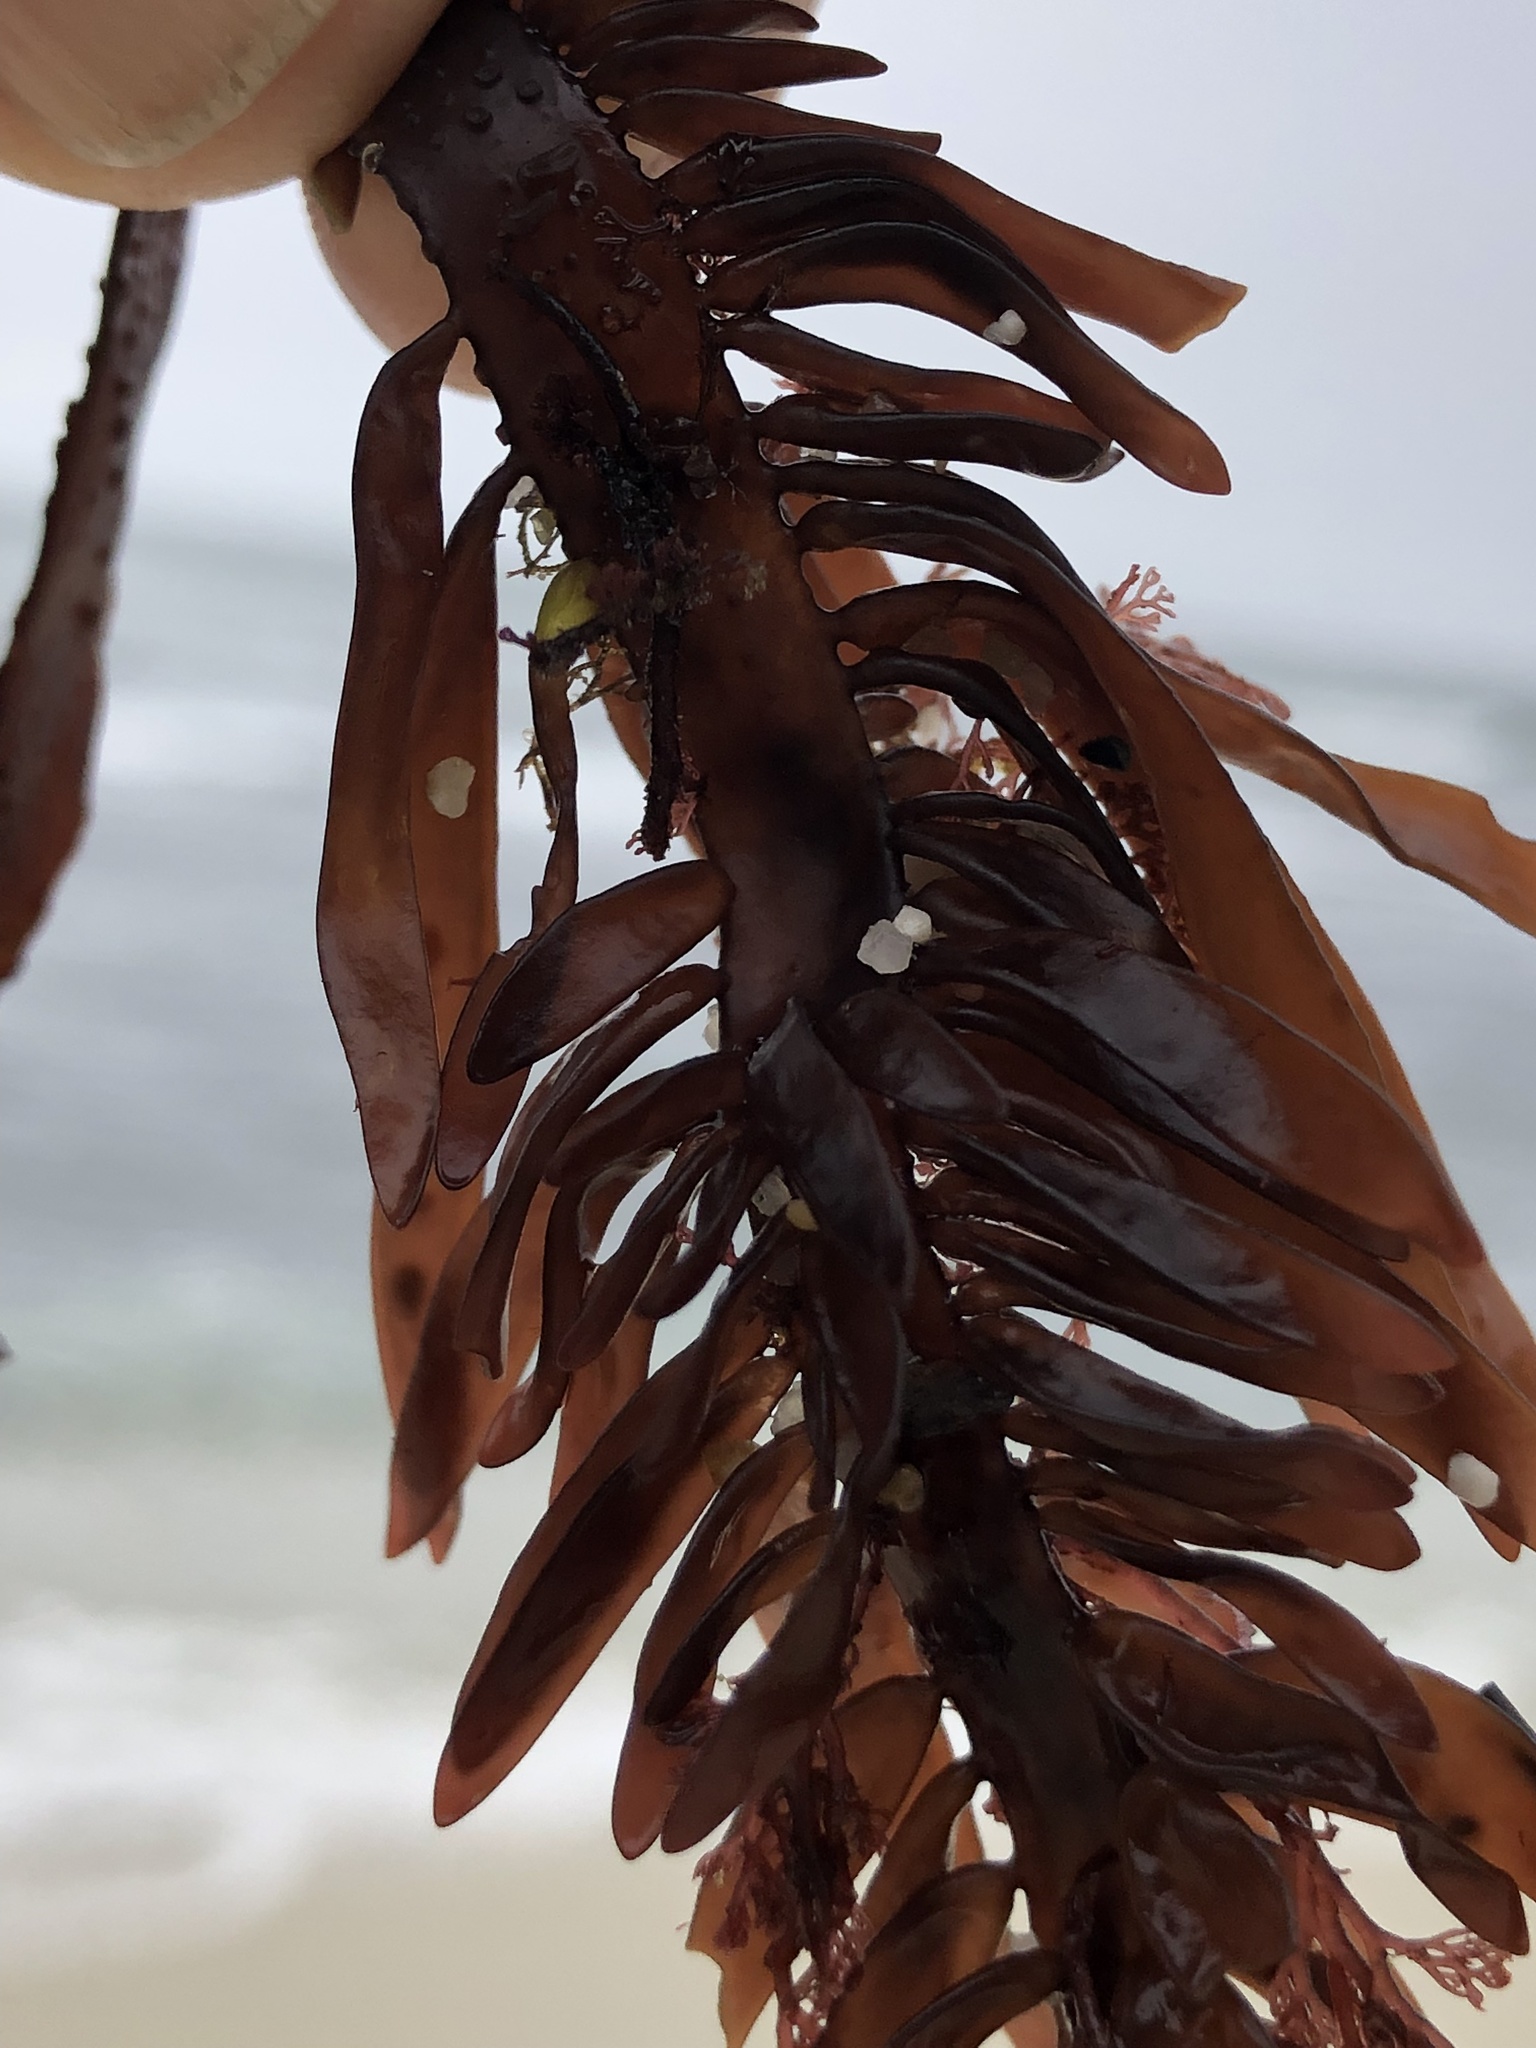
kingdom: Plantae
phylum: Rhodophyta
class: Florideophyceae
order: Halymeniales
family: Halymeniaceae
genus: Grateloupia
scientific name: Grateloupia Prionitis lanceolata
